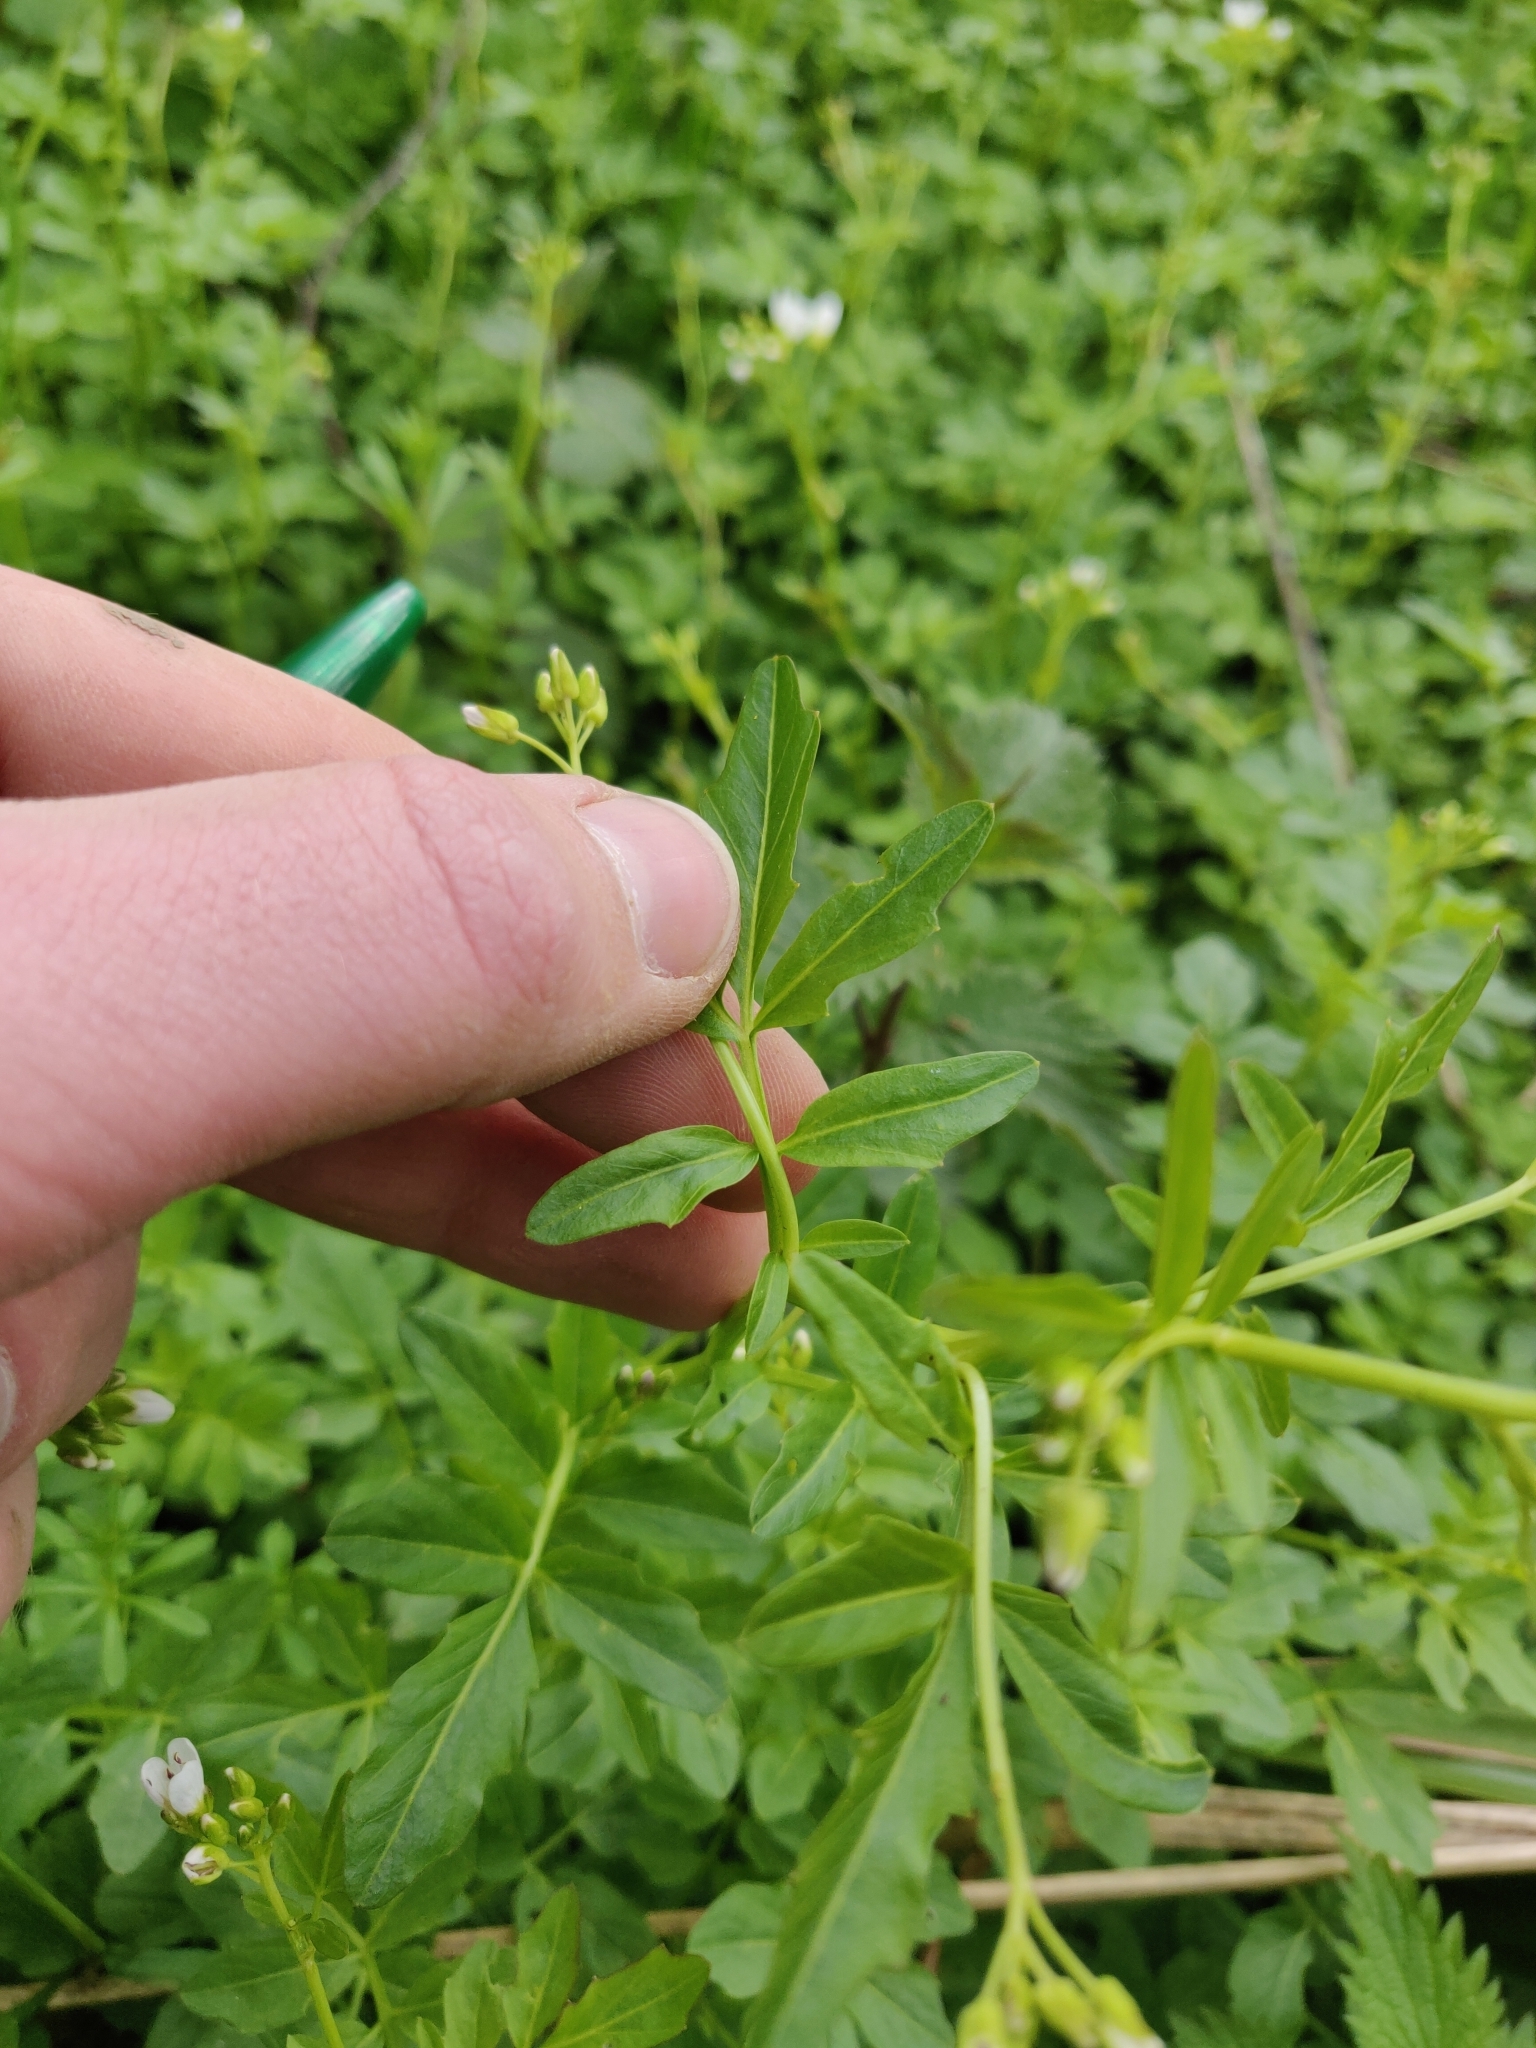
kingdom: Plantae
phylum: Tracheophyta
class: Magnoliopsida
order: Brassicales
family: Brassicaceae
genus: Cardamine
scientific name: Cardamine amara
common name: Large bitter-cress
